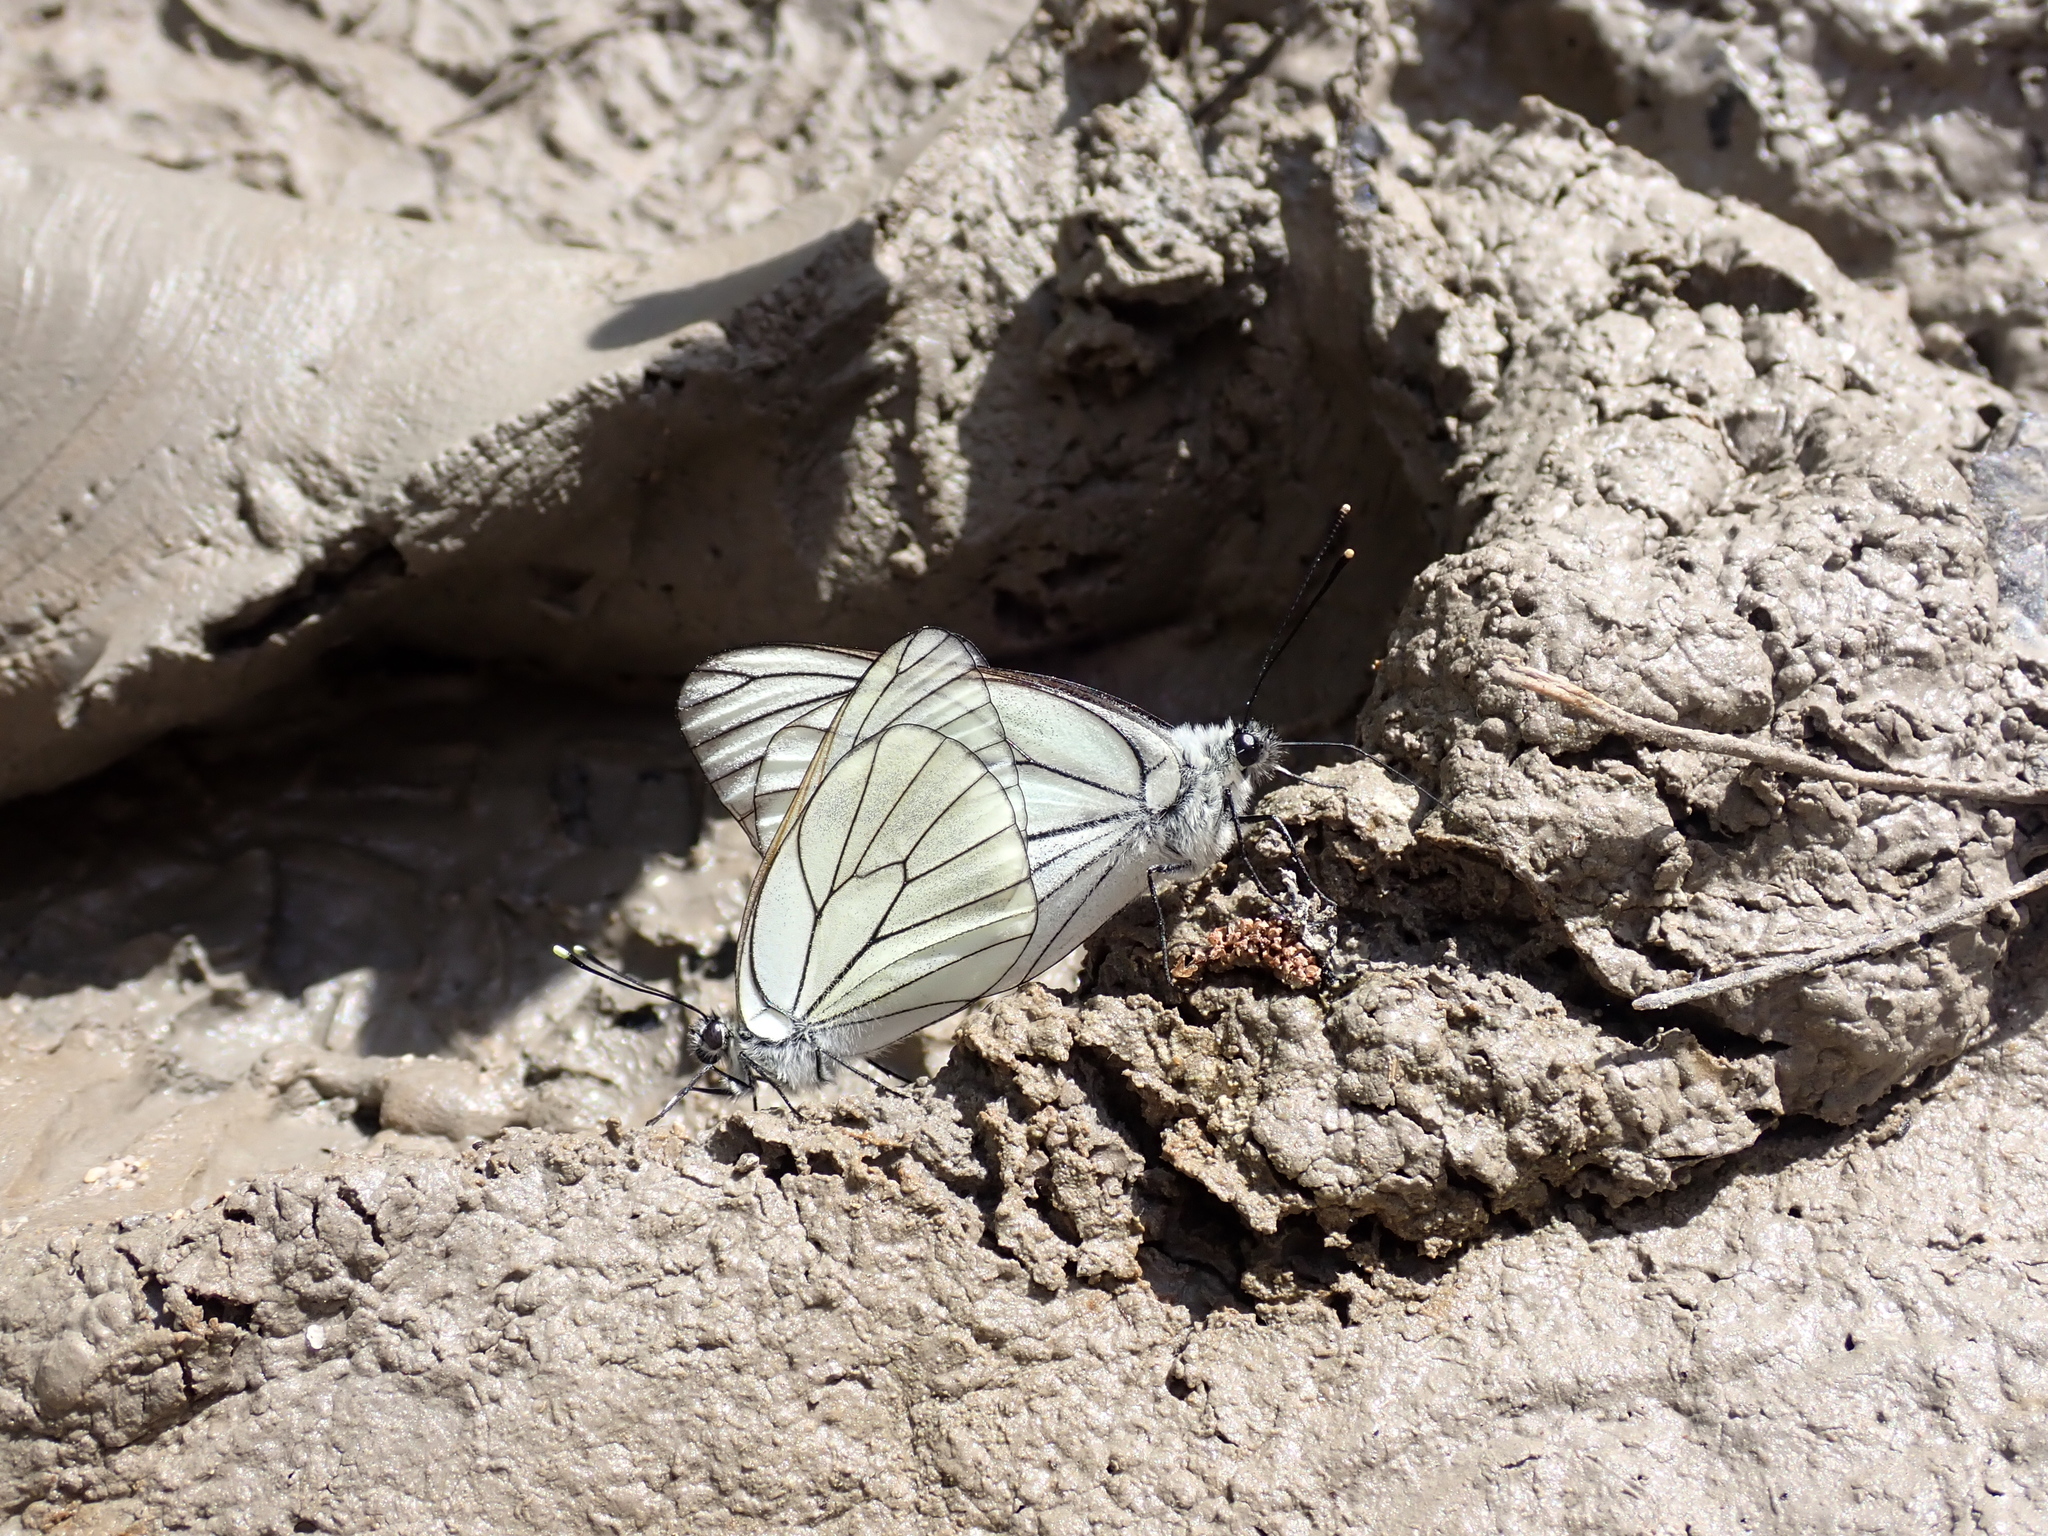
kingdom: Animalia
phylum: Arthropoda
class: Insecta
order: Lepidoptera
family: Pieridae
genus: Aporia
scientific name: Aporia crataegi
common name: Black-veined white
